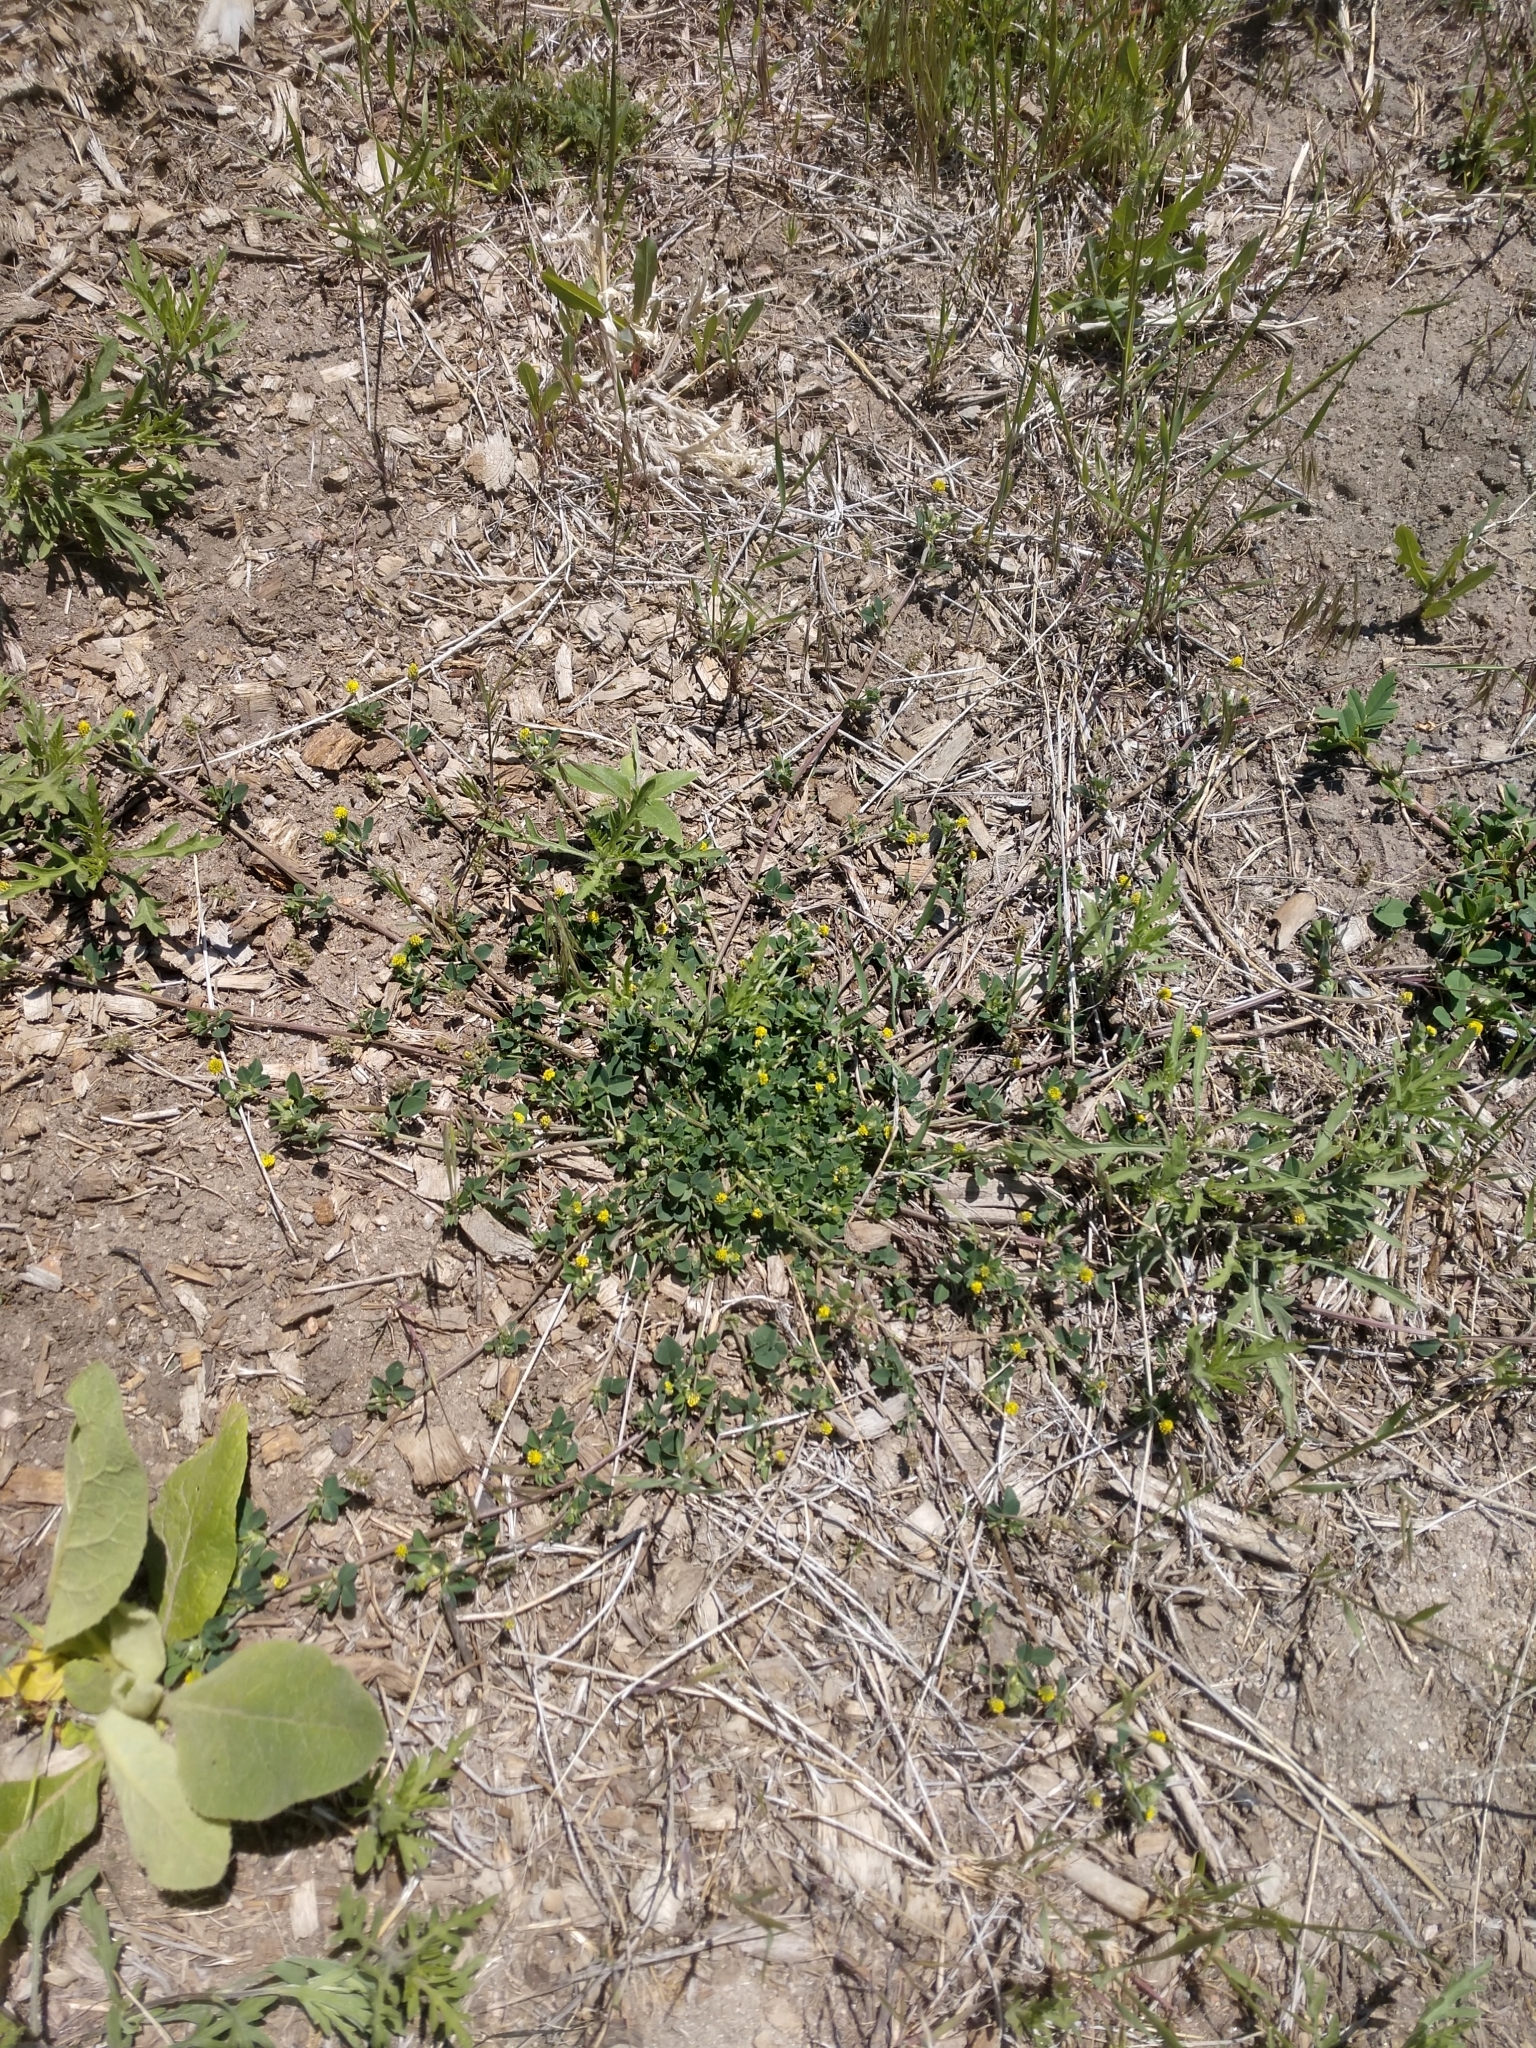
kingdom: Plantae
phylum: Tracheophyta
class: Magnoliopsida
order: Fabales
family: Fabaceae
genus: Medicago
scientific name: Medicago lupulina
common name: Black medick
